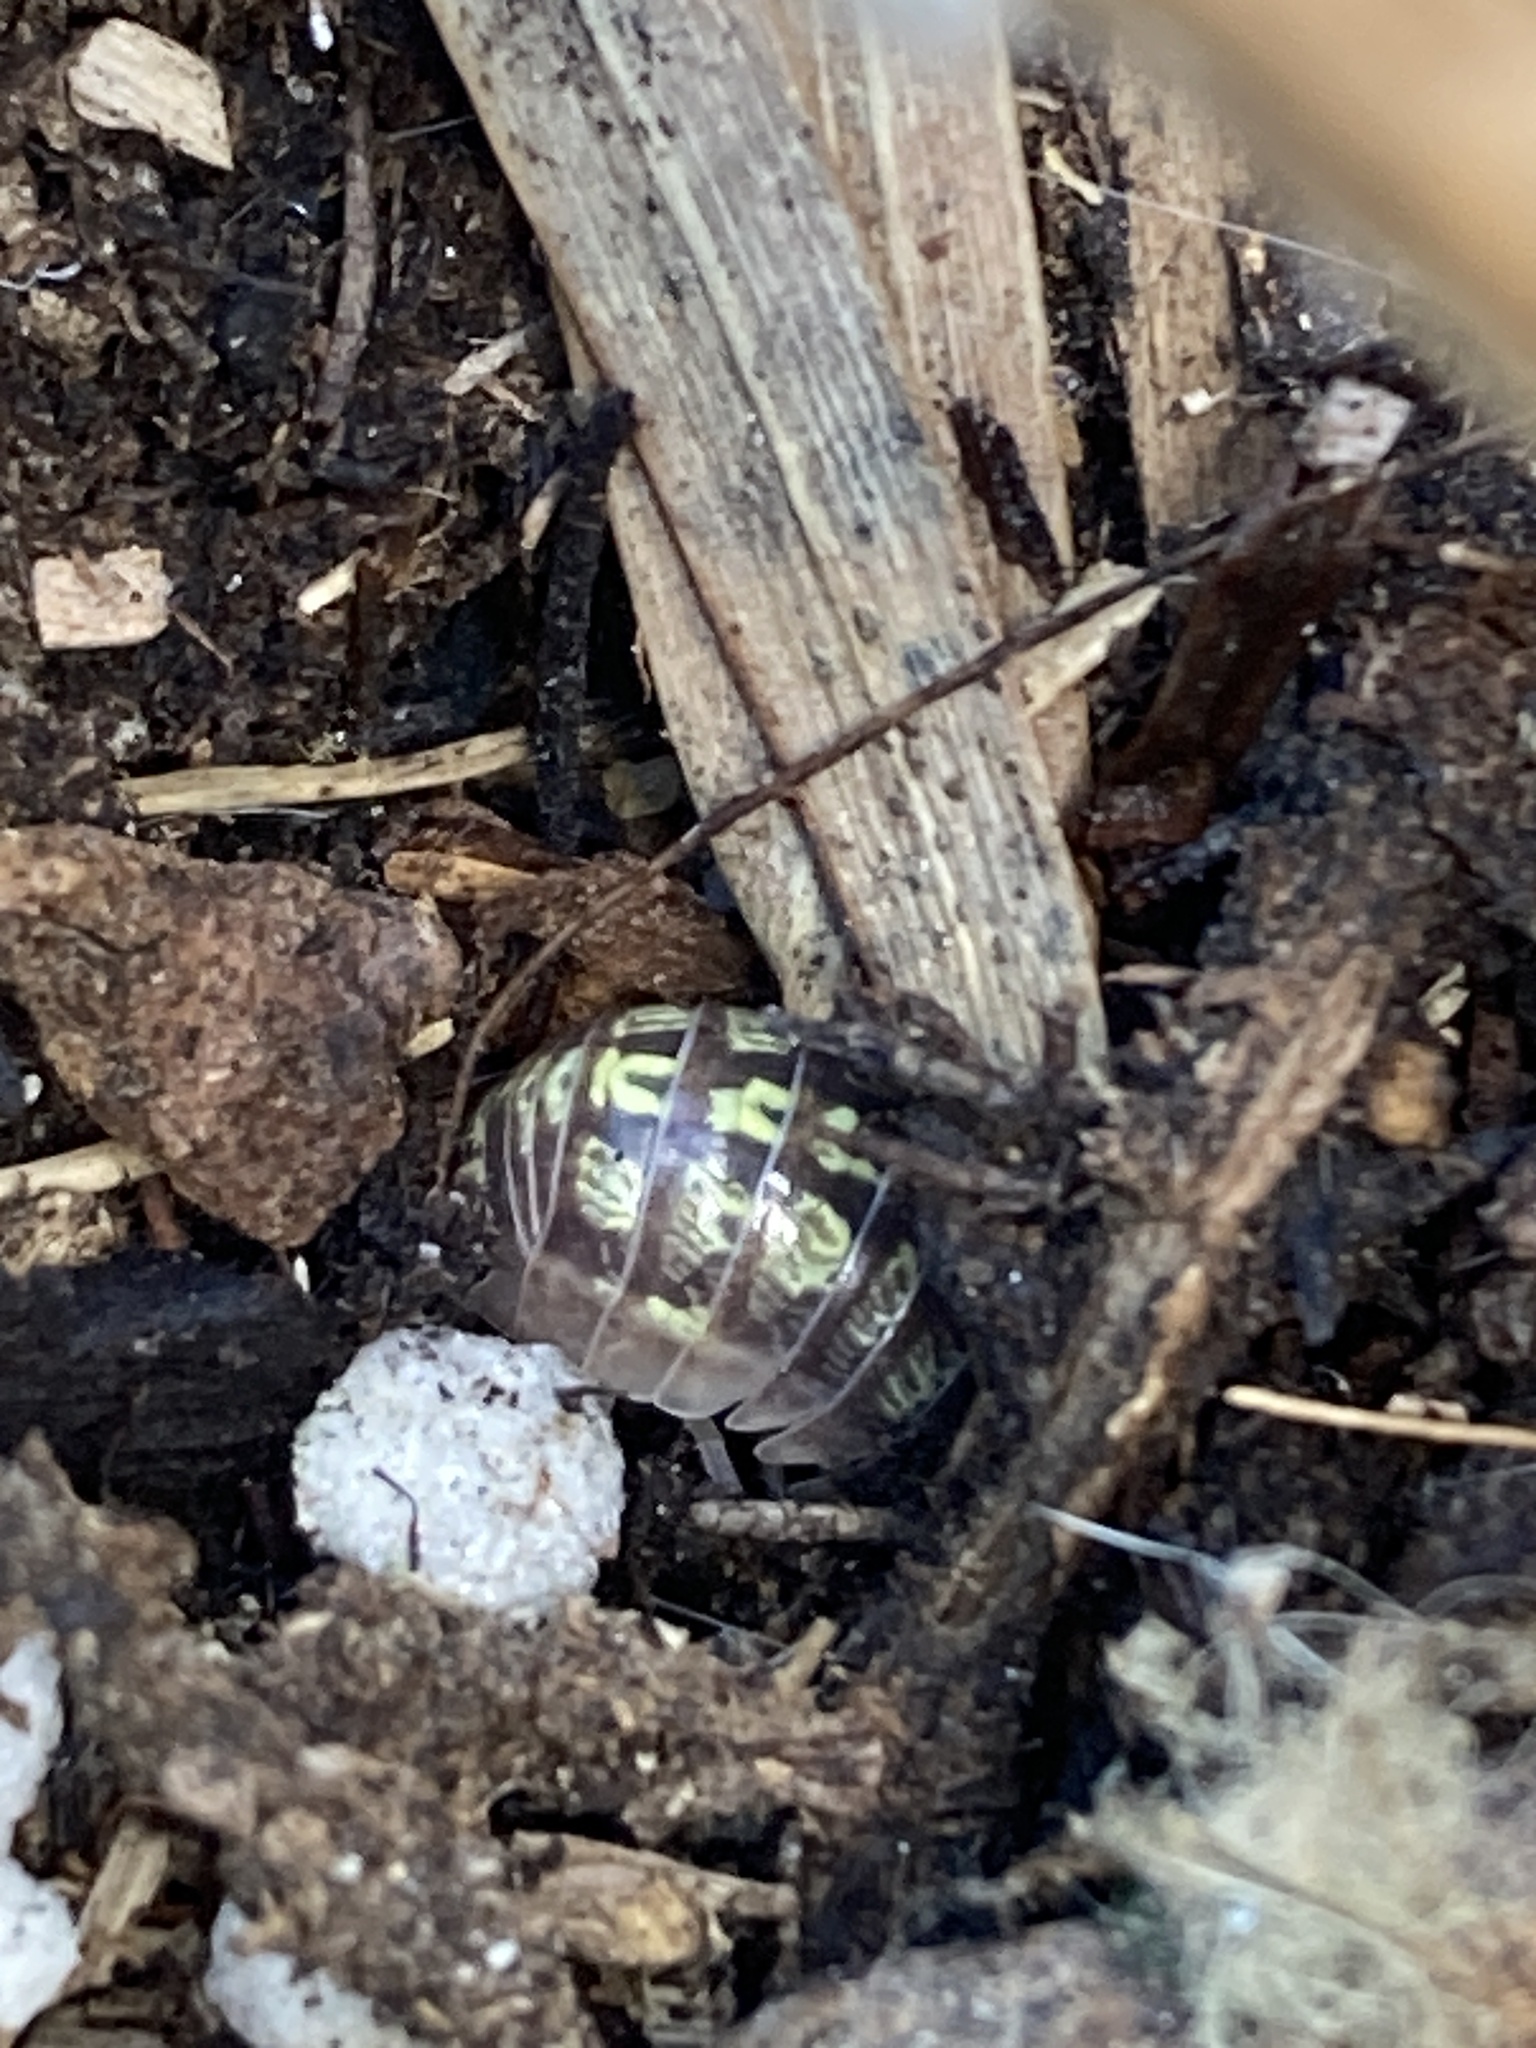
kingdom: Animalia
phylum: Arthropoda
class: Malacostraca
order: Isopoda
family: Armadillidiidae
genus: Armadillidium
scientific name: Armadillidium vulgare
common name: Common pill woodlouse
